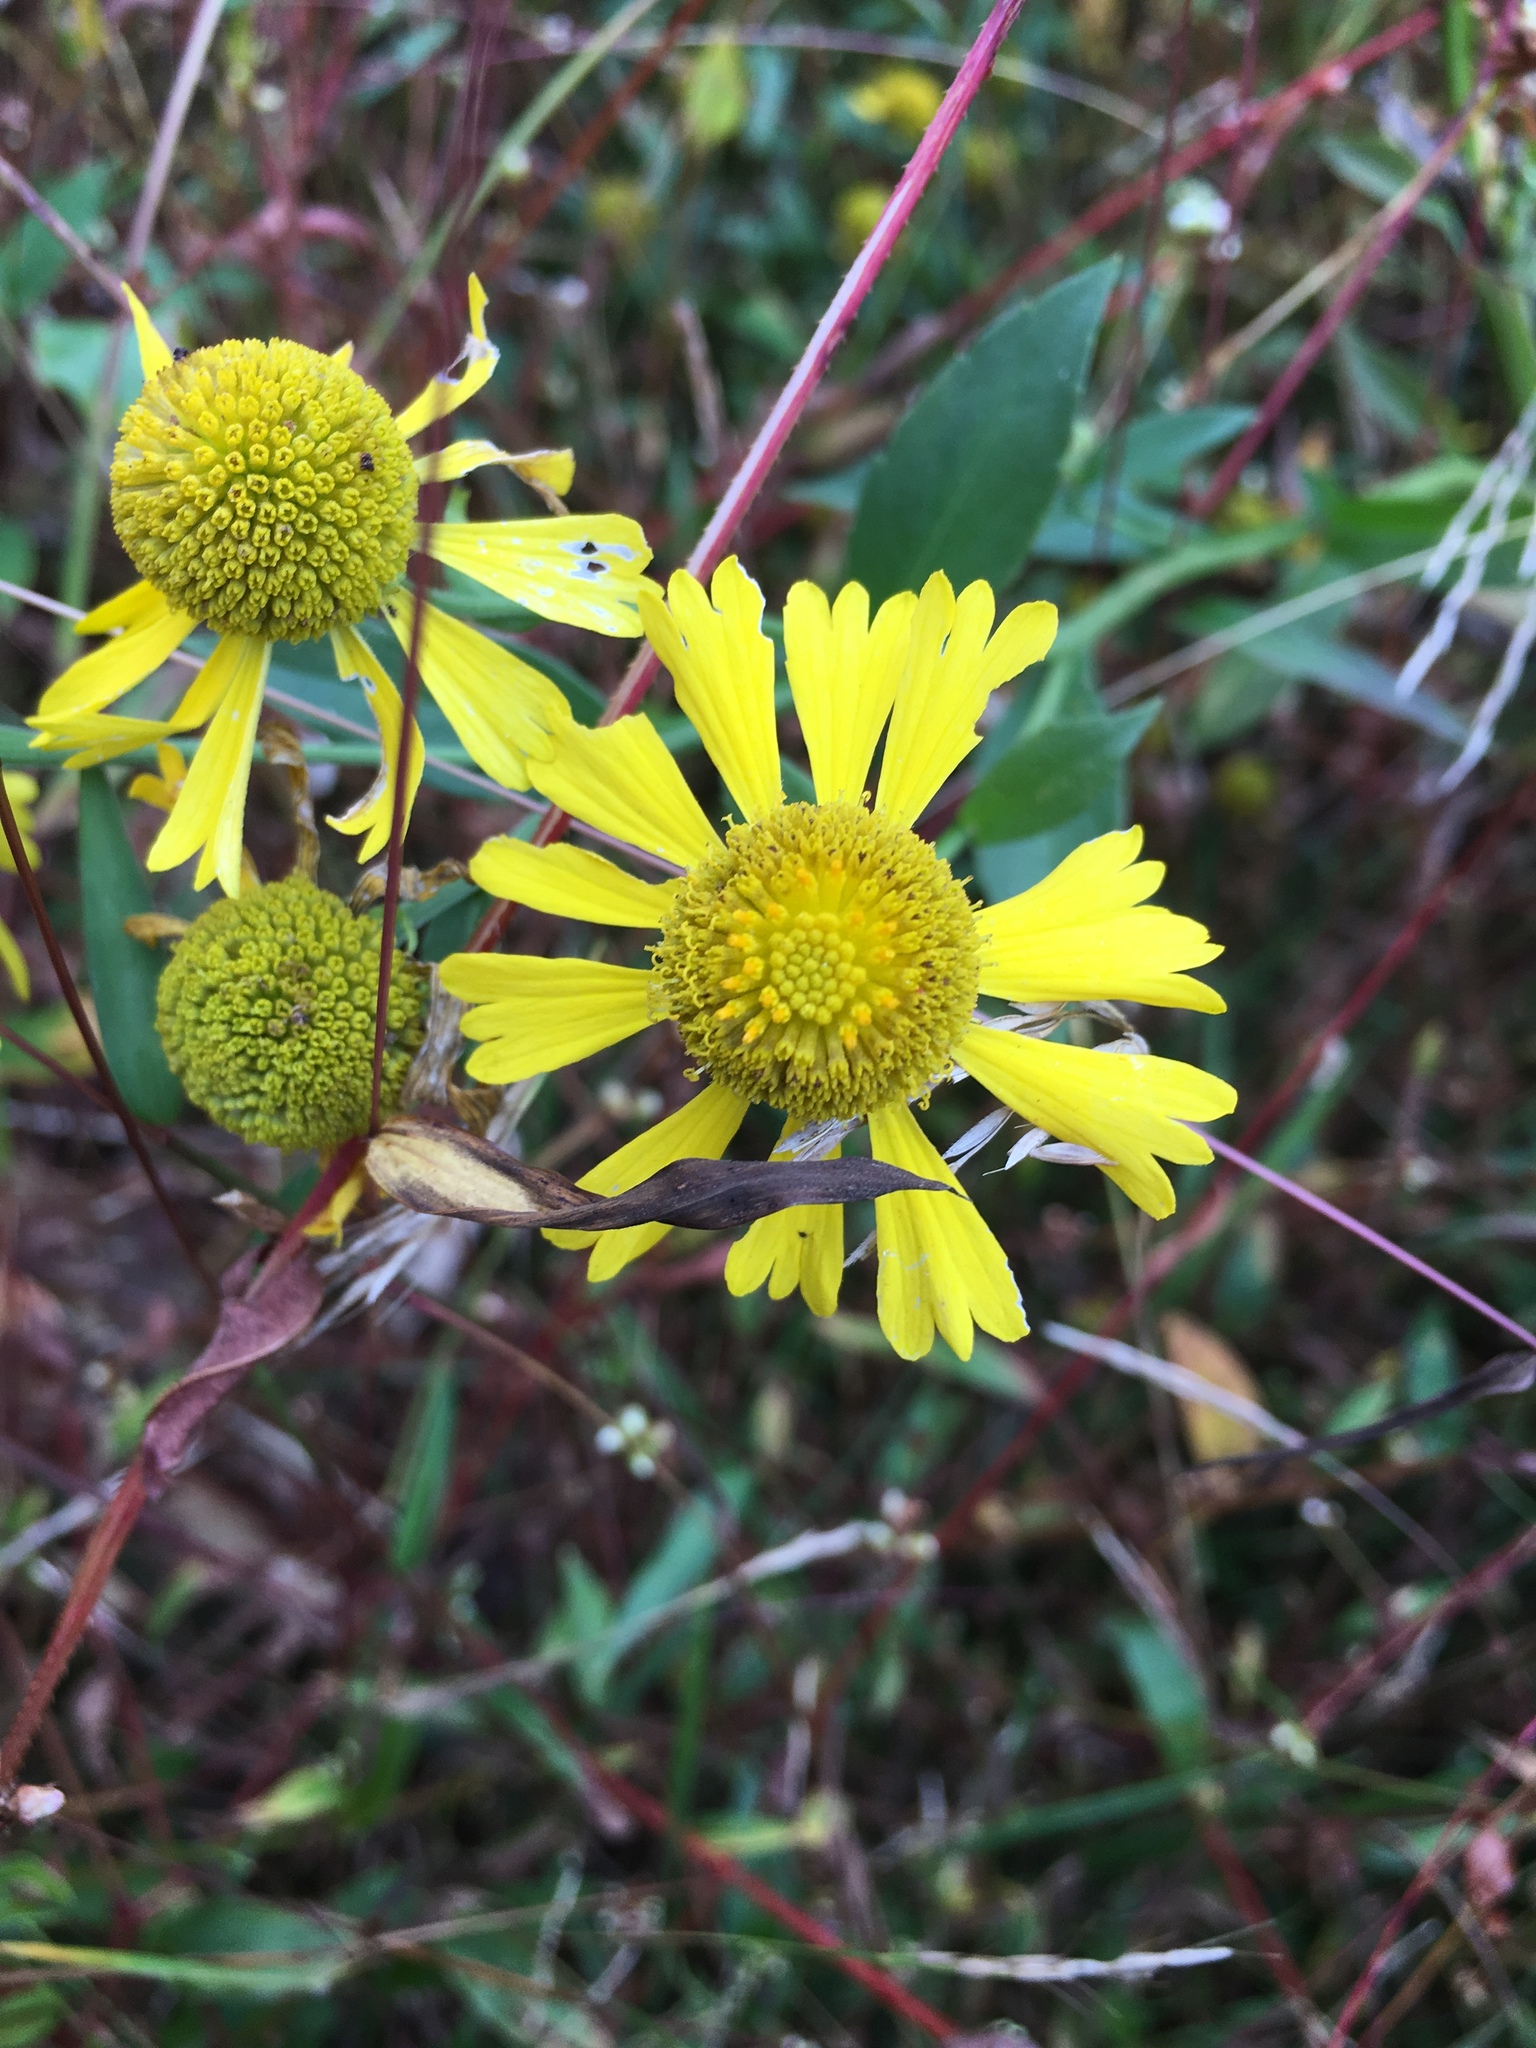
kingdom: Plantae
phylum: Tracheophyta
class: Magnoliopsida
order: Asterales
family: Asteraceae
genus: Helenium
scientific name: Helenium autumnale
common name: Sneezeweed
